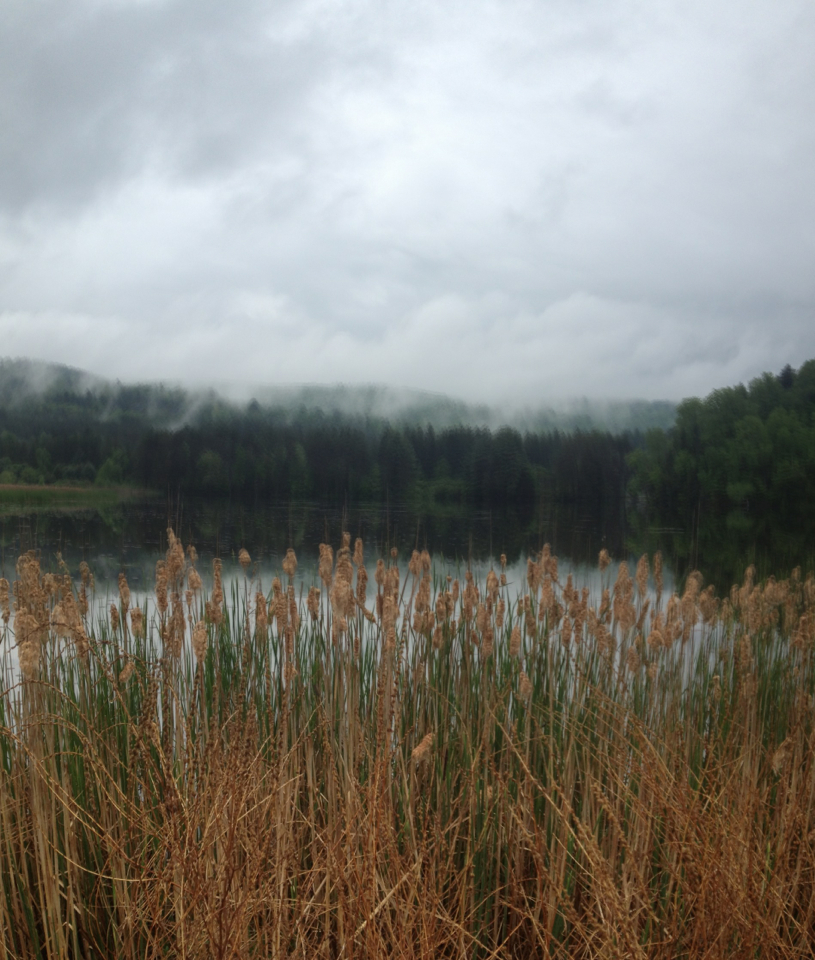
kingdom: Plantae
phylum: Tracheophyta
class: Liliopsida
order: Poales
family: Typhaceae
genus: Typha
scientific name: Typha latifolia
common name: Broadleaf cattail
